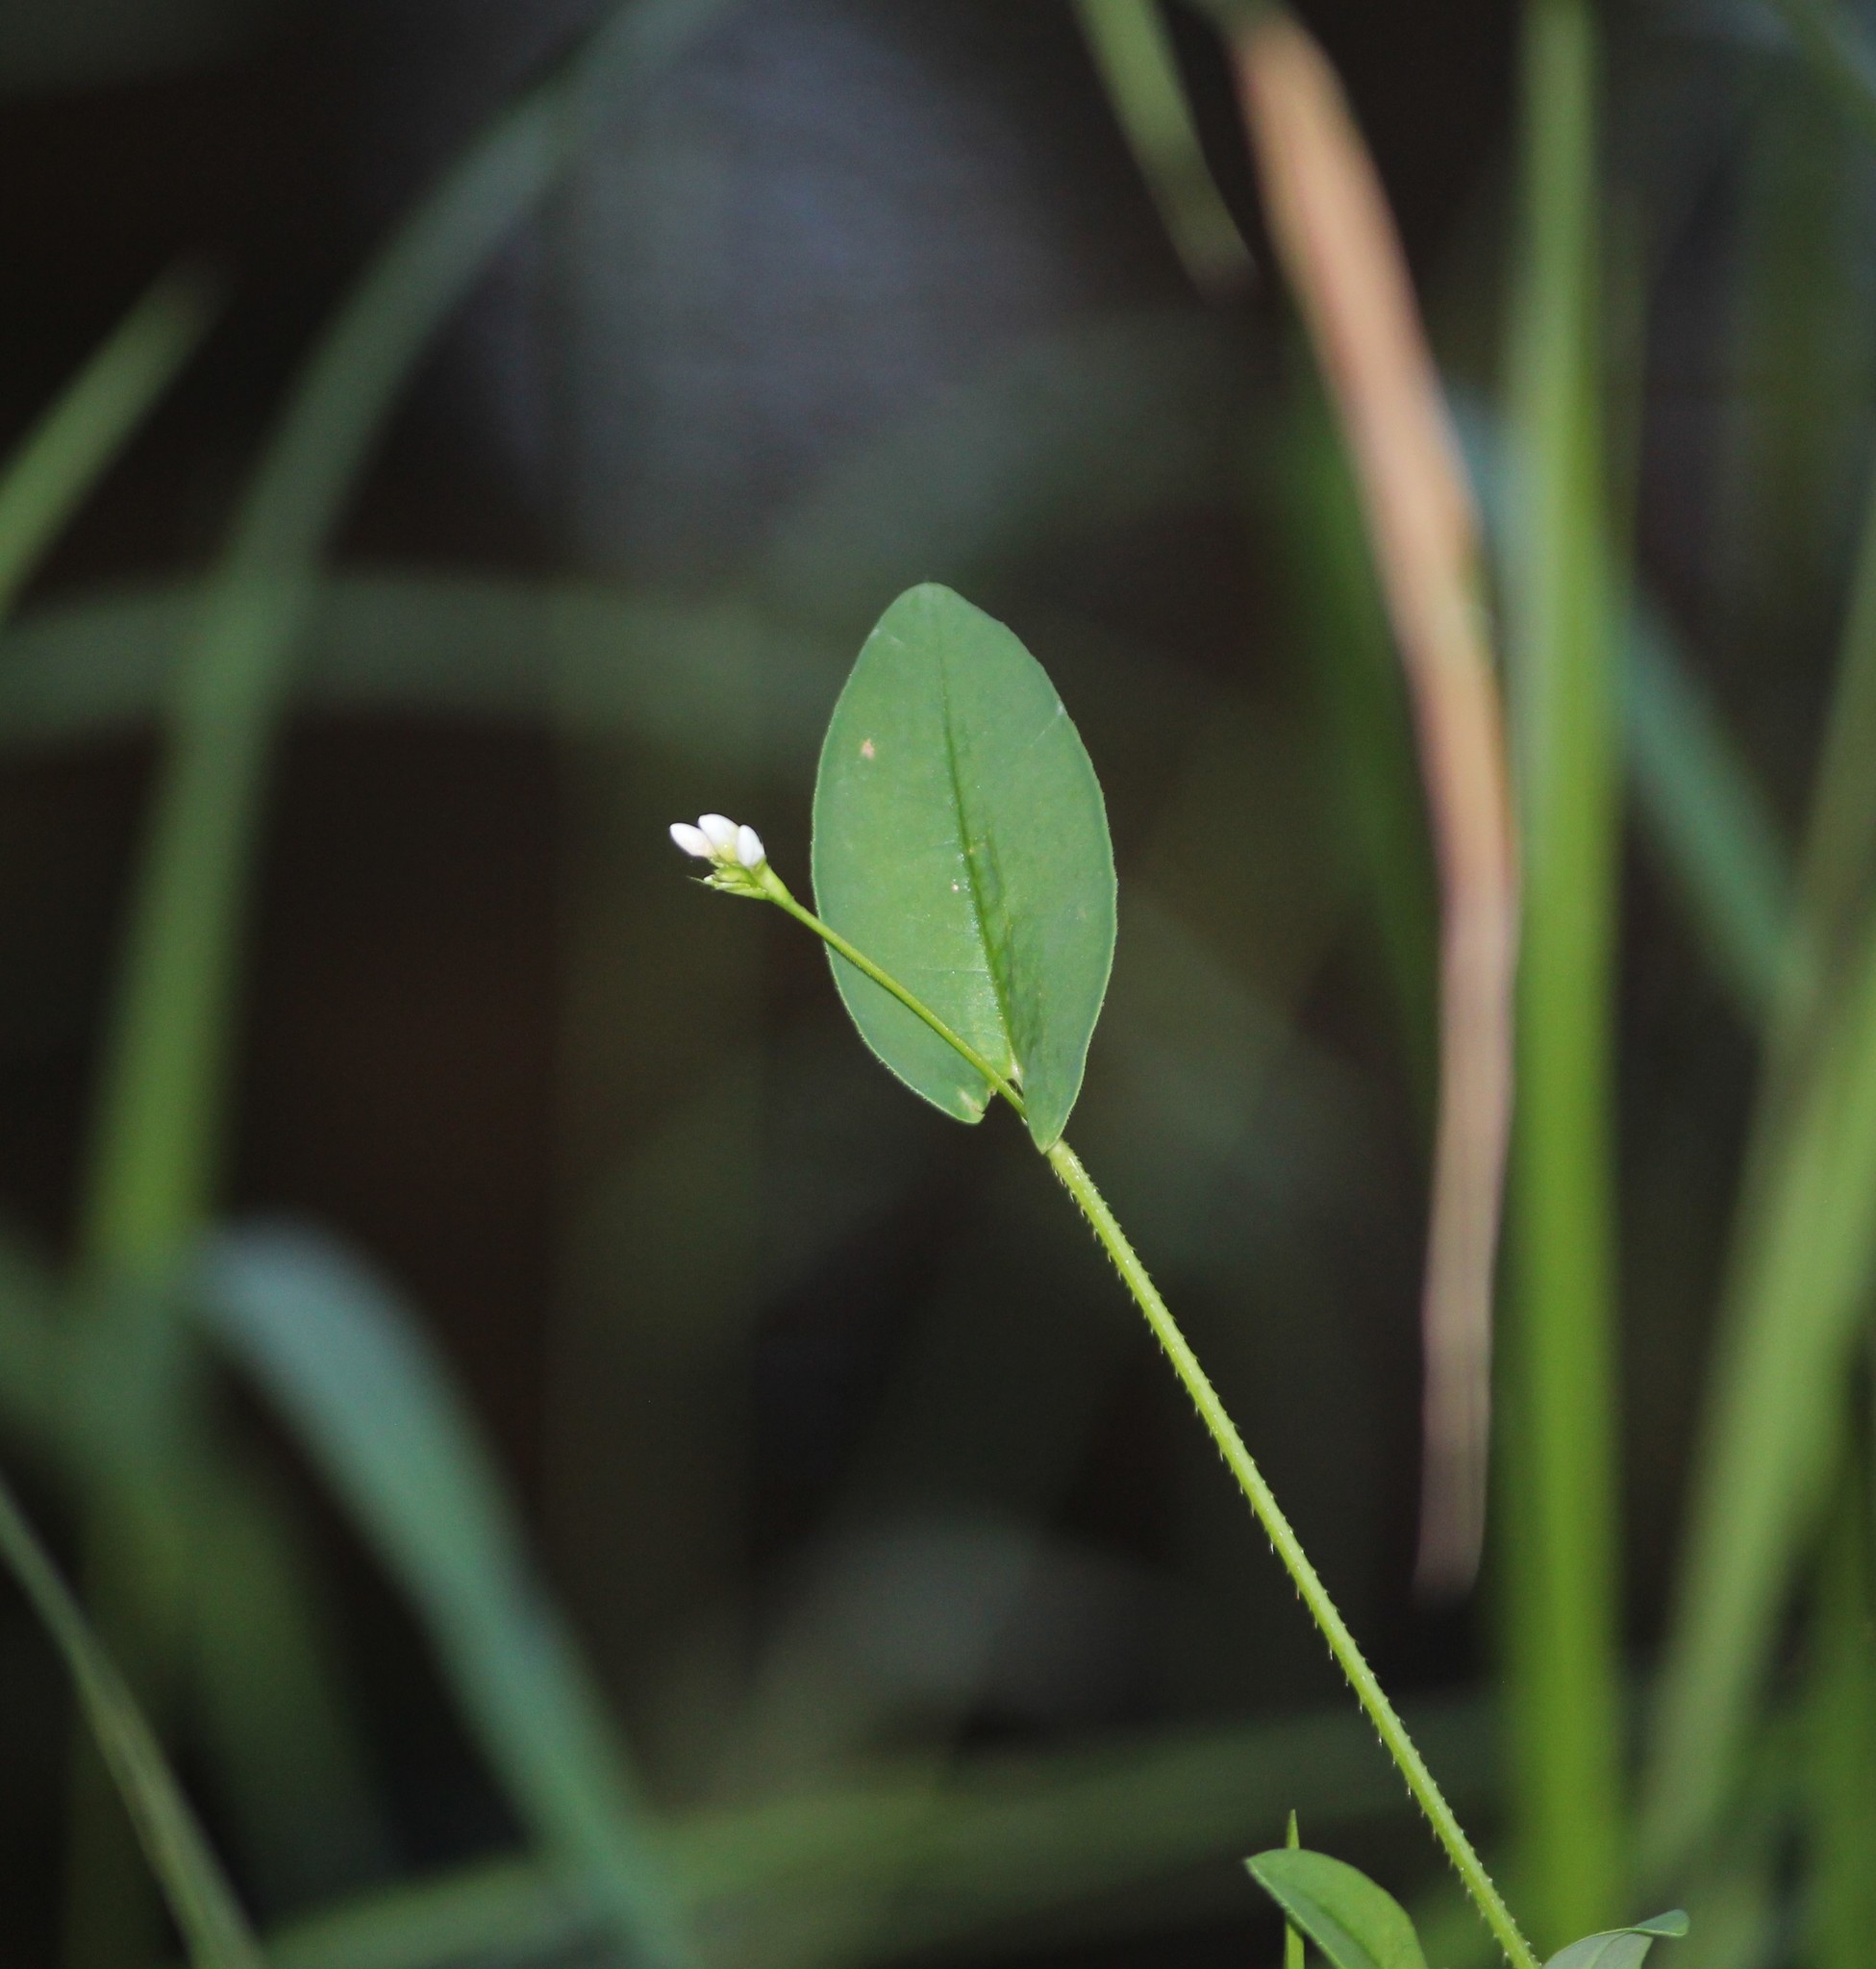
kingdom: Plantae
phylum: Tracheophyta
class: Magnoliopsida
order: Caryophyllales
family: Polygonaceae
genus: Persicaria
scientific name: Persicaria sagittata
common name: American tearthumb
